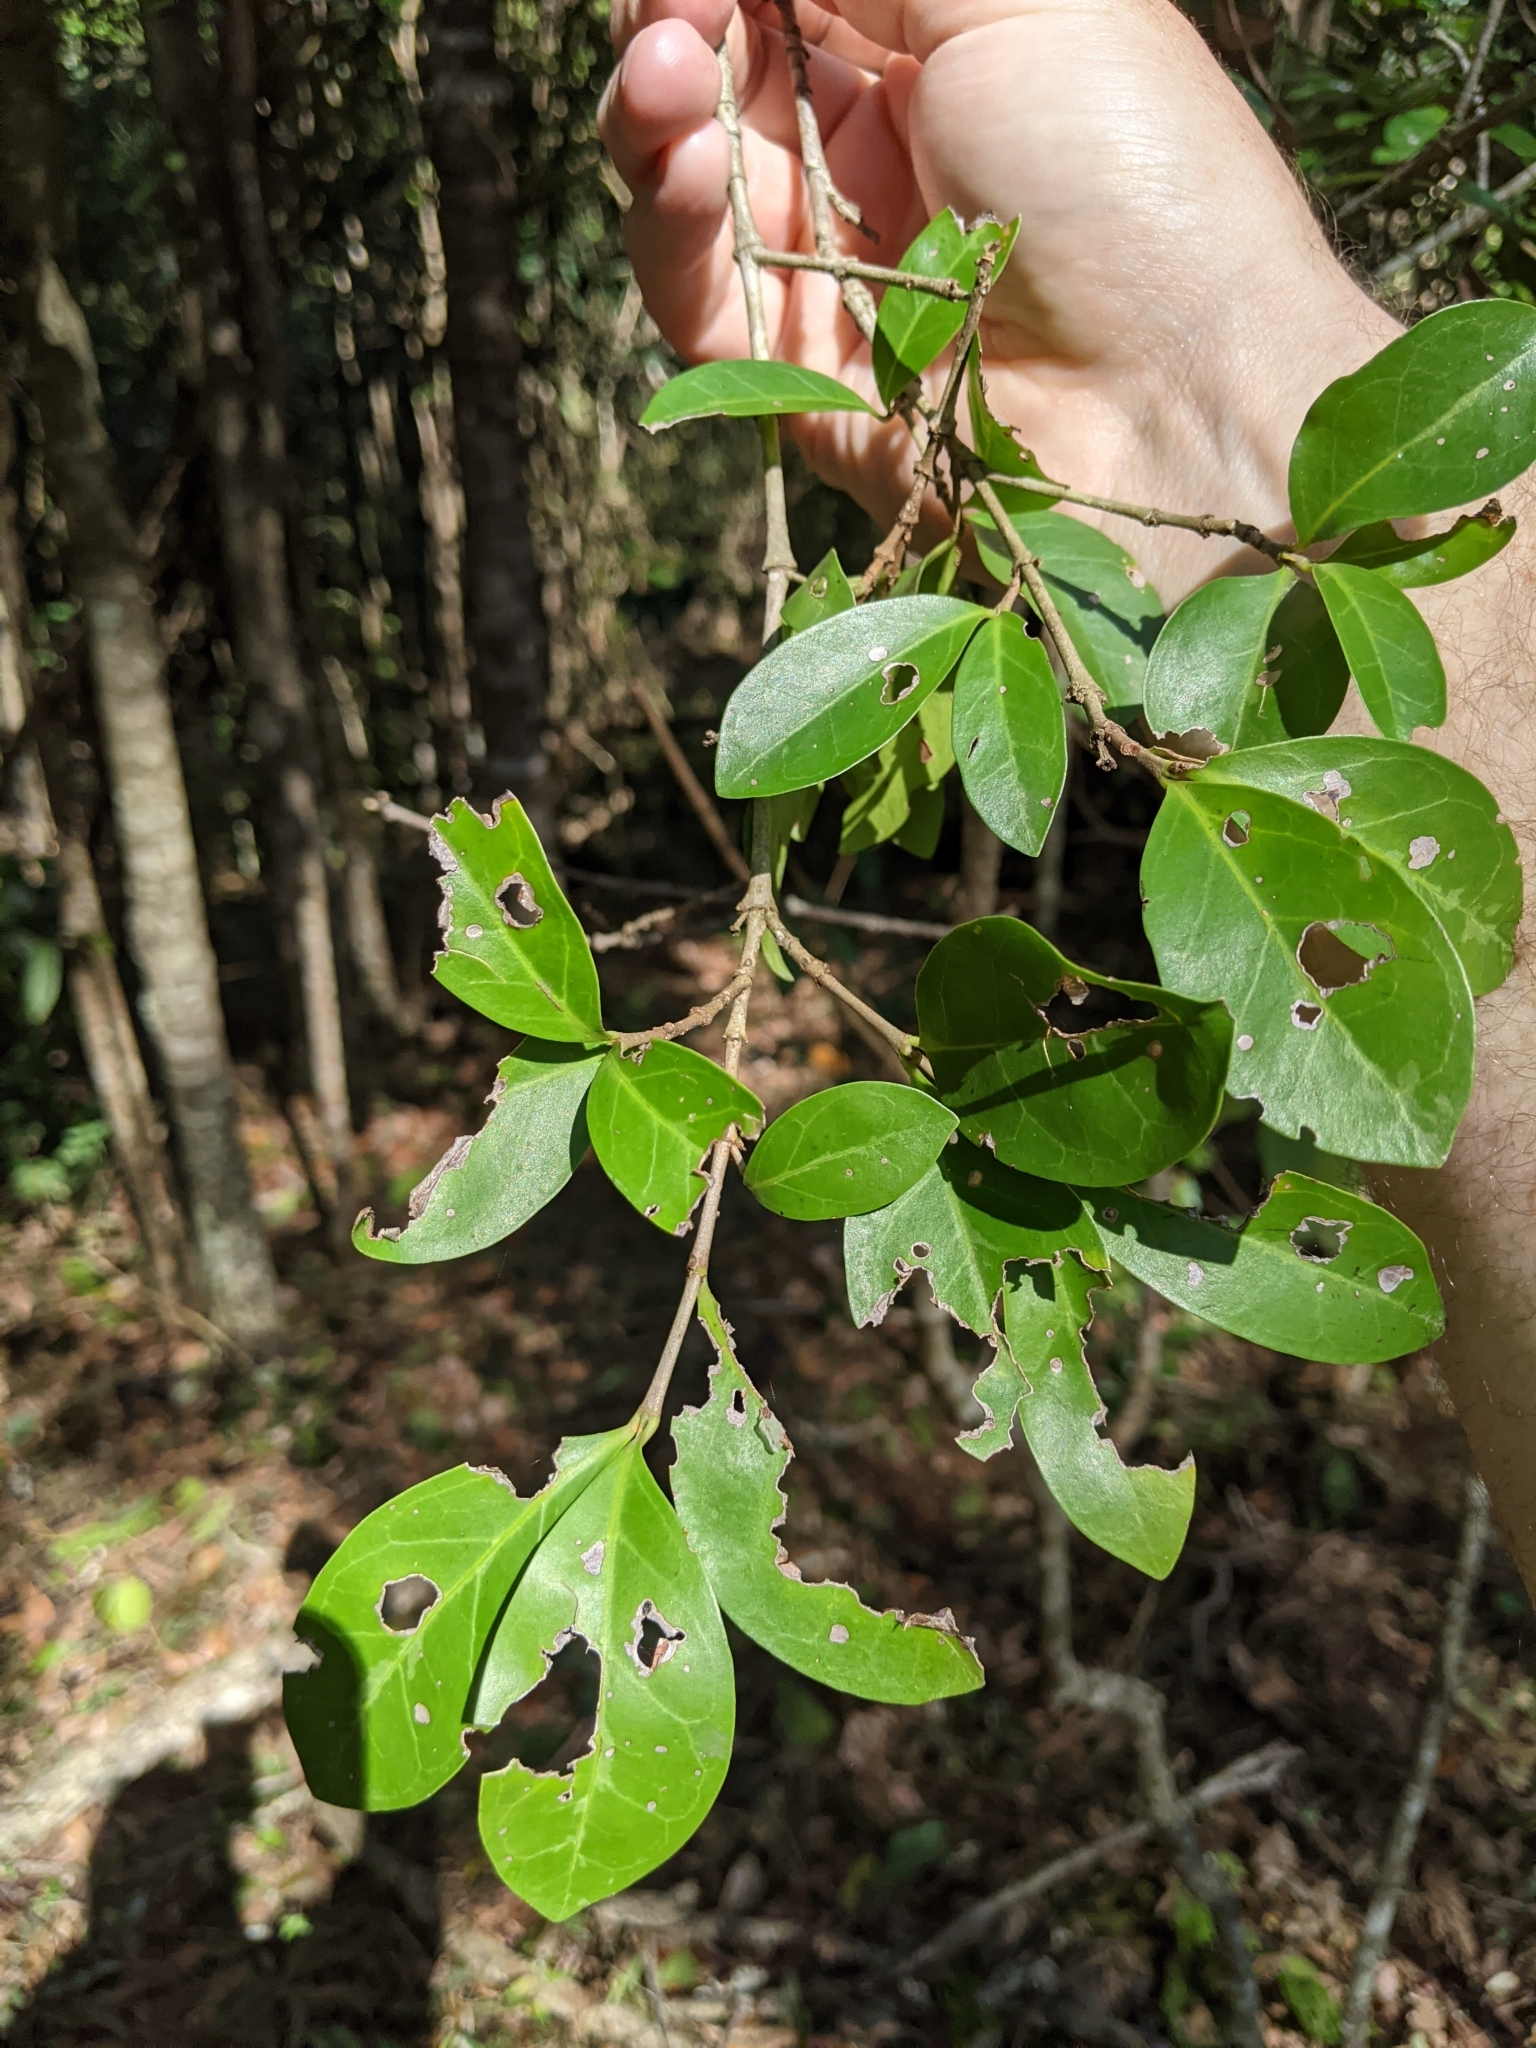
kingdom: Plantae
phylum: Tracheophyta
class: Magnoliopsida
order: Gentianales
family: Rubiaceae
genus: Psydrax
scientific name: Psydrax odoratus
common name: Alahe'e
